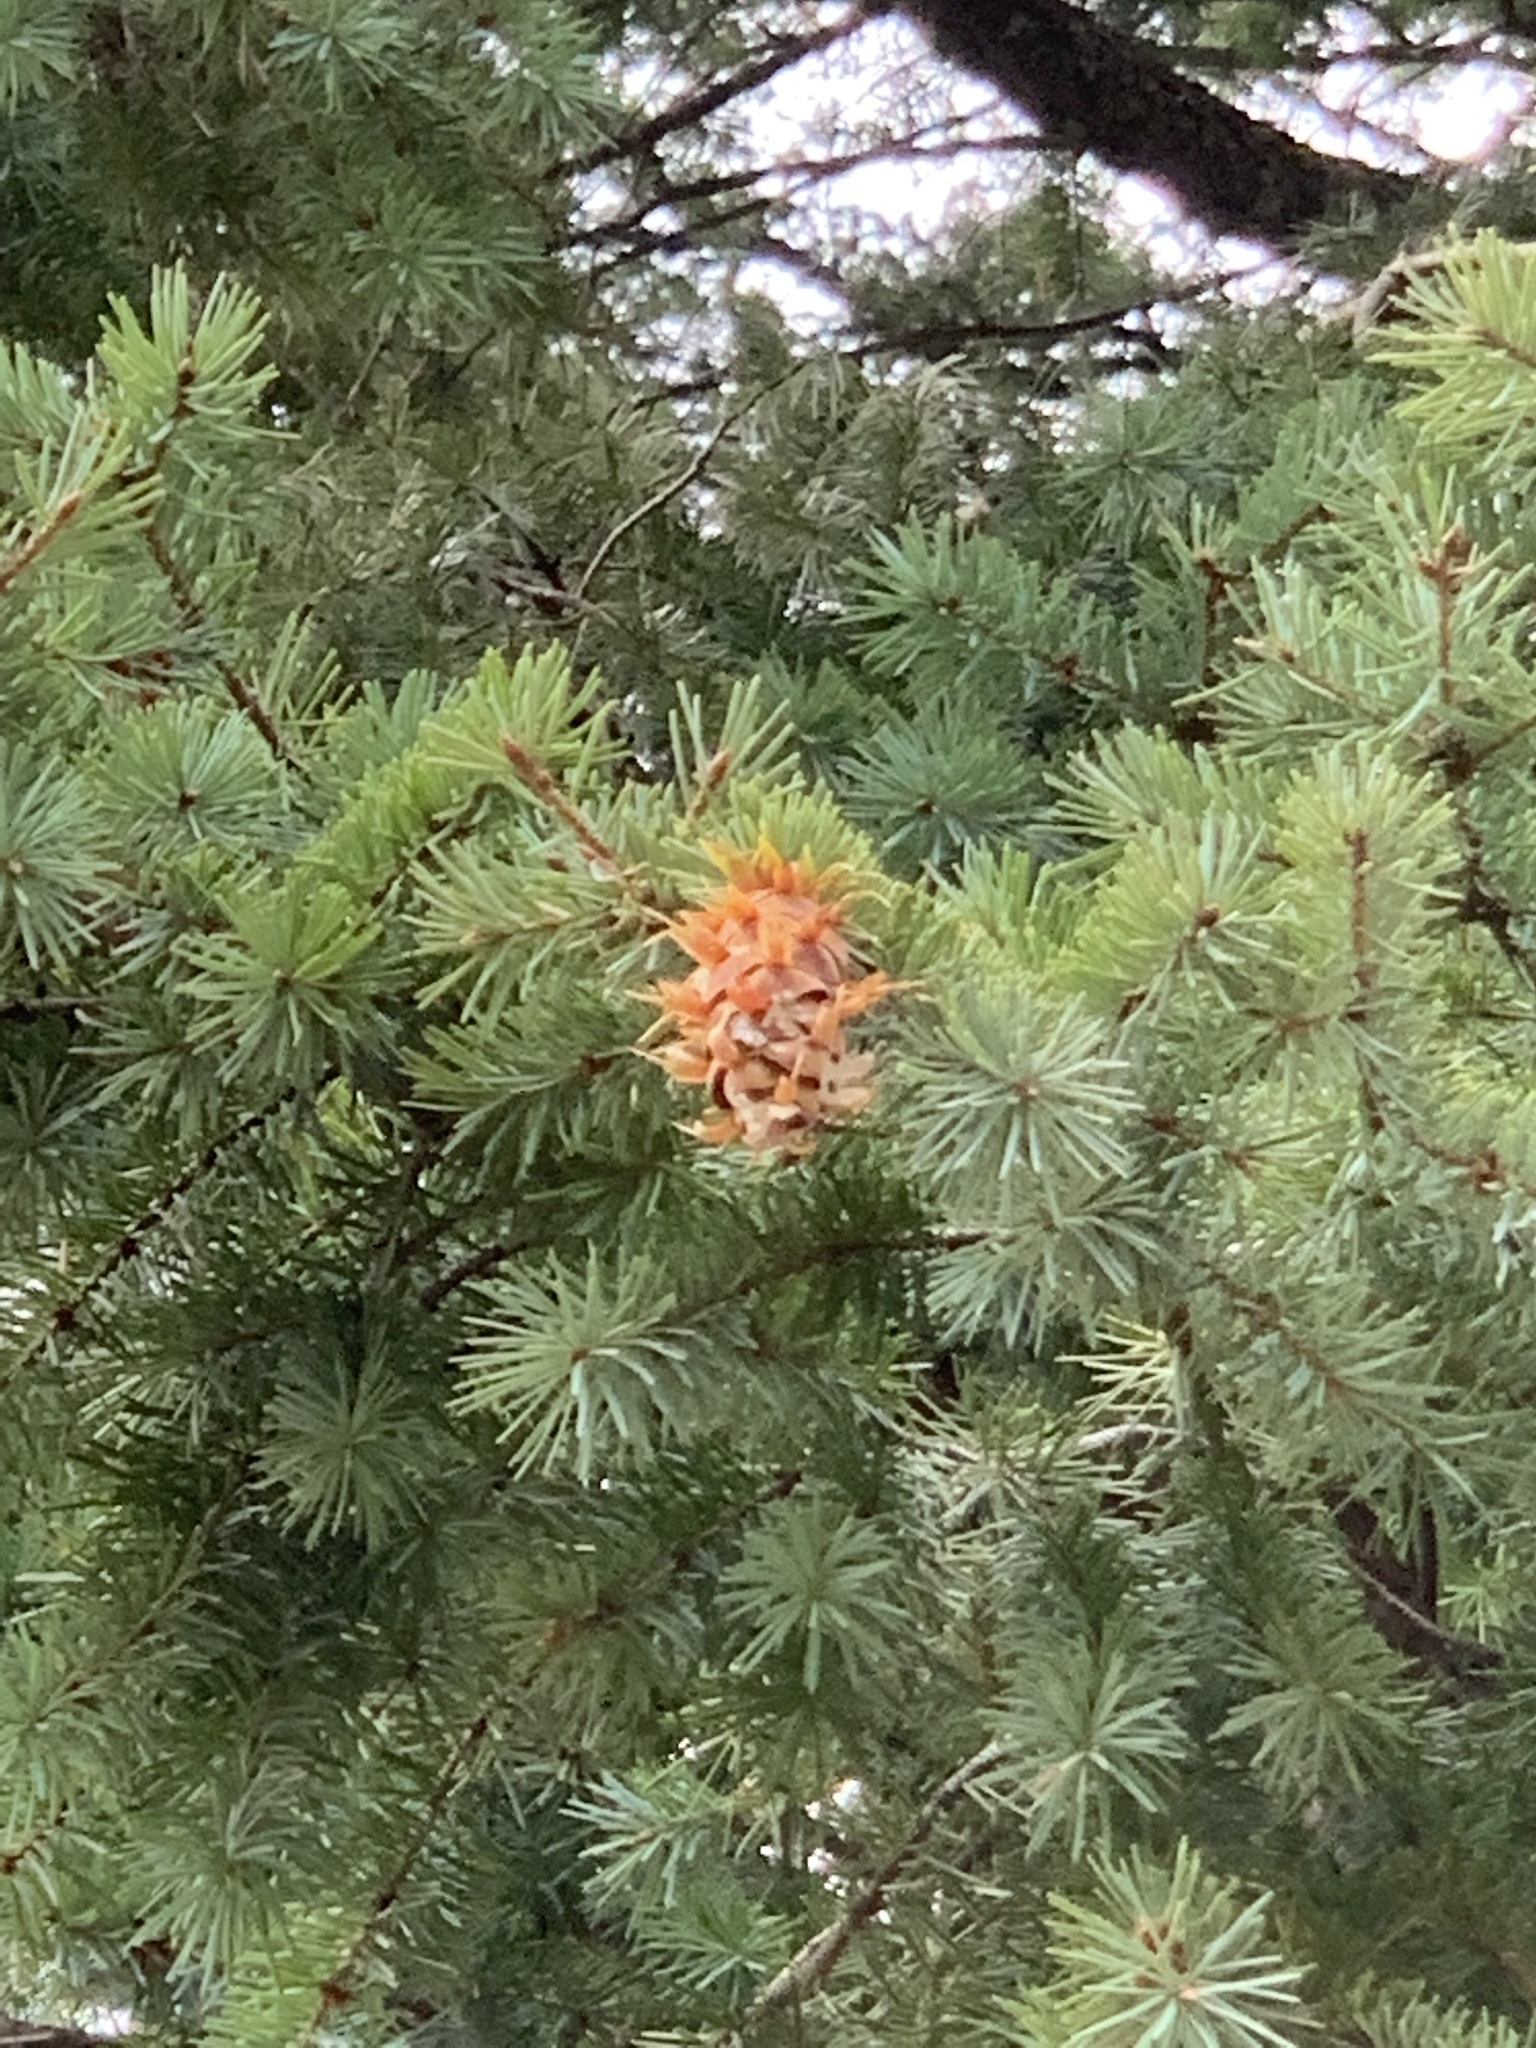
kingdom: Plantae
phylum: Tracheophyta
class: Pinopsida
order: Pinales
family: Pinaceae
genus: Pseudotsuga
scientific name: Pseudotsuga menziesii
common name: Douglas fir
